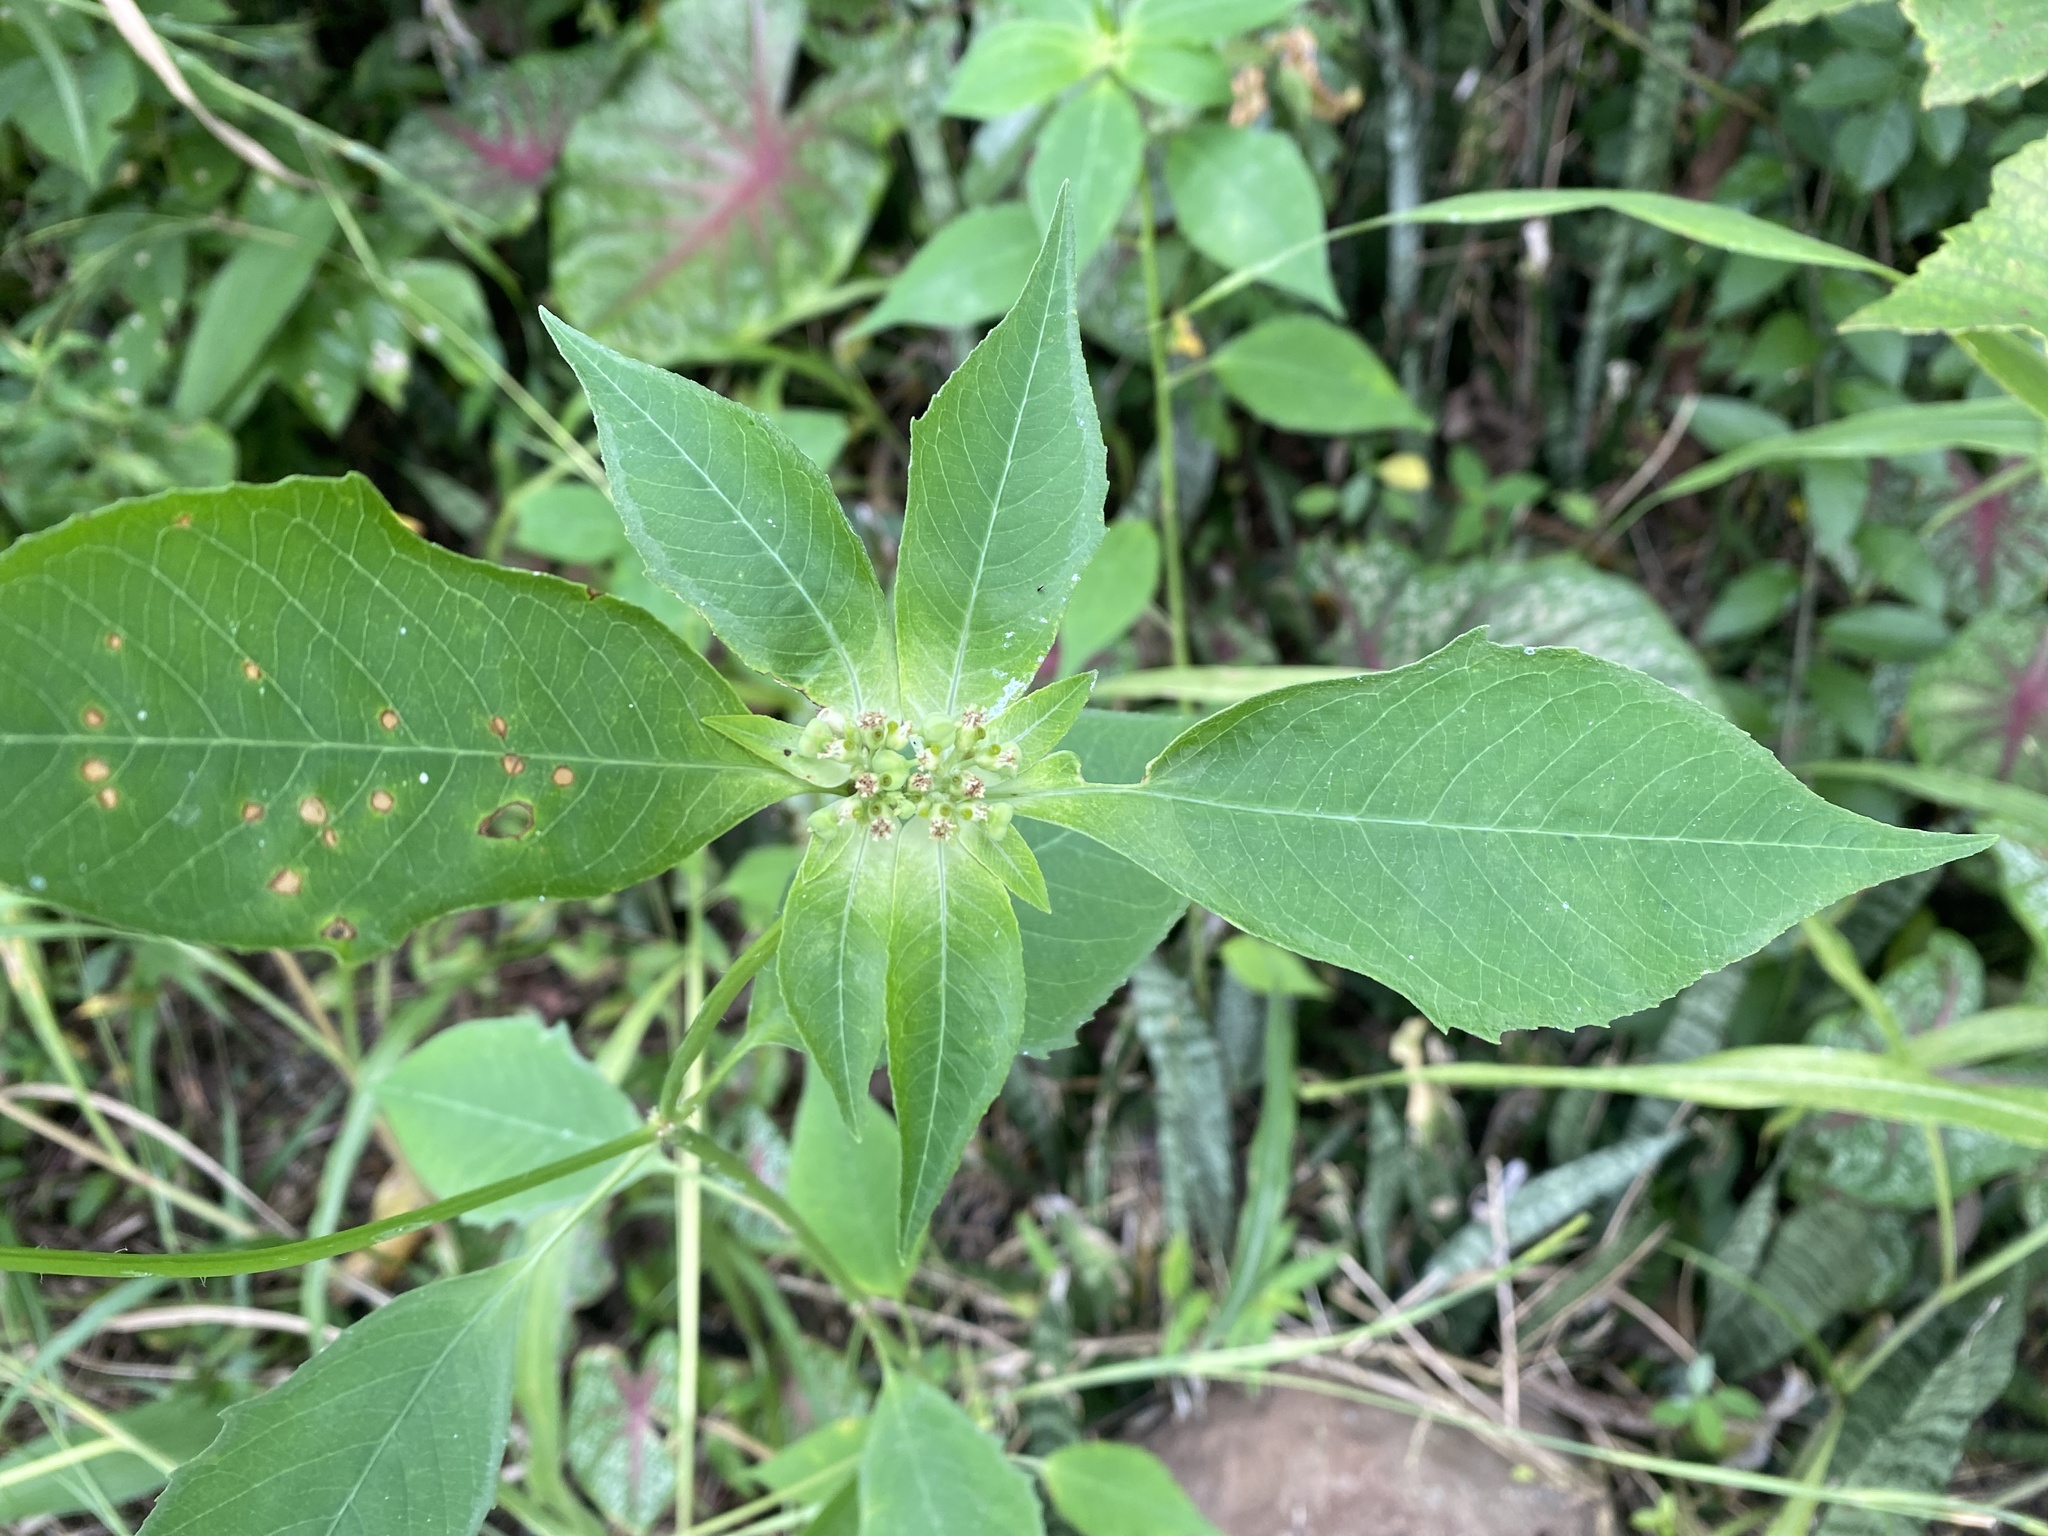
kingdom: Plantae
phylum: Tracheophyta
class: Magnoliopsida
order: Malpighiales
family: Euphorbiaceae
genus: Euphorbia
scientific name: Euphorbia heterophylla
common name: Mexican fireplant
